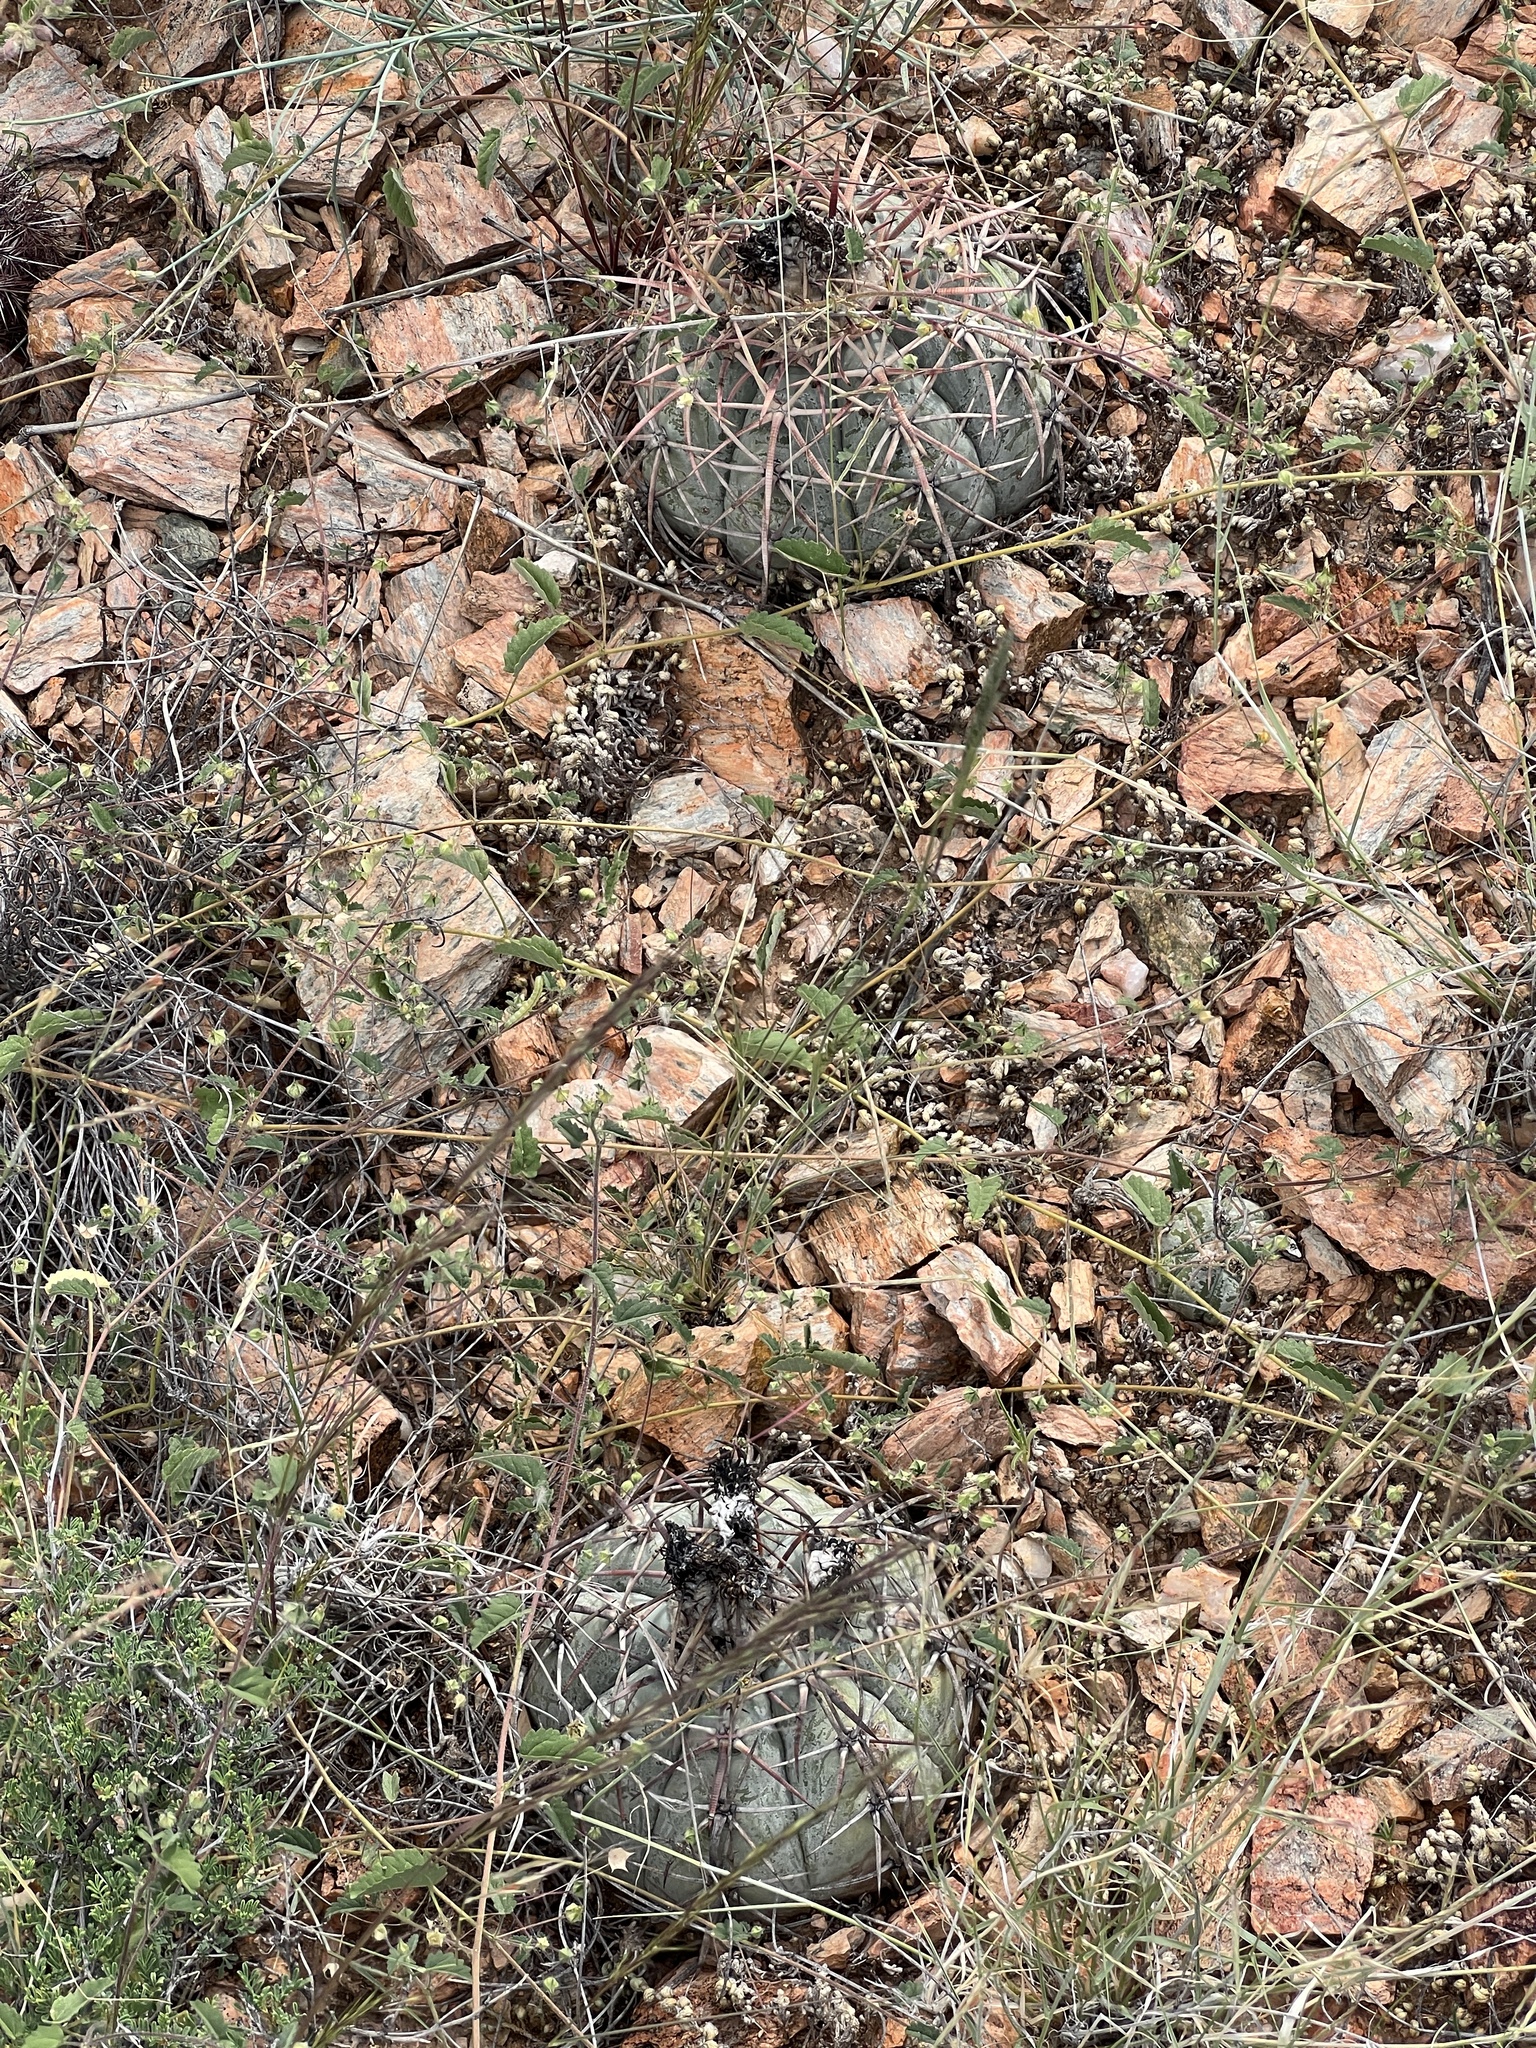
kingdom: Plantae
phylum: Tracheophyta
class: Magnoliopsida
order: Caryophyllales
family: Cactaceae
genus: Echinocactus
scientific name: Echinocactus horizonthalonius
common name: Devilshead
